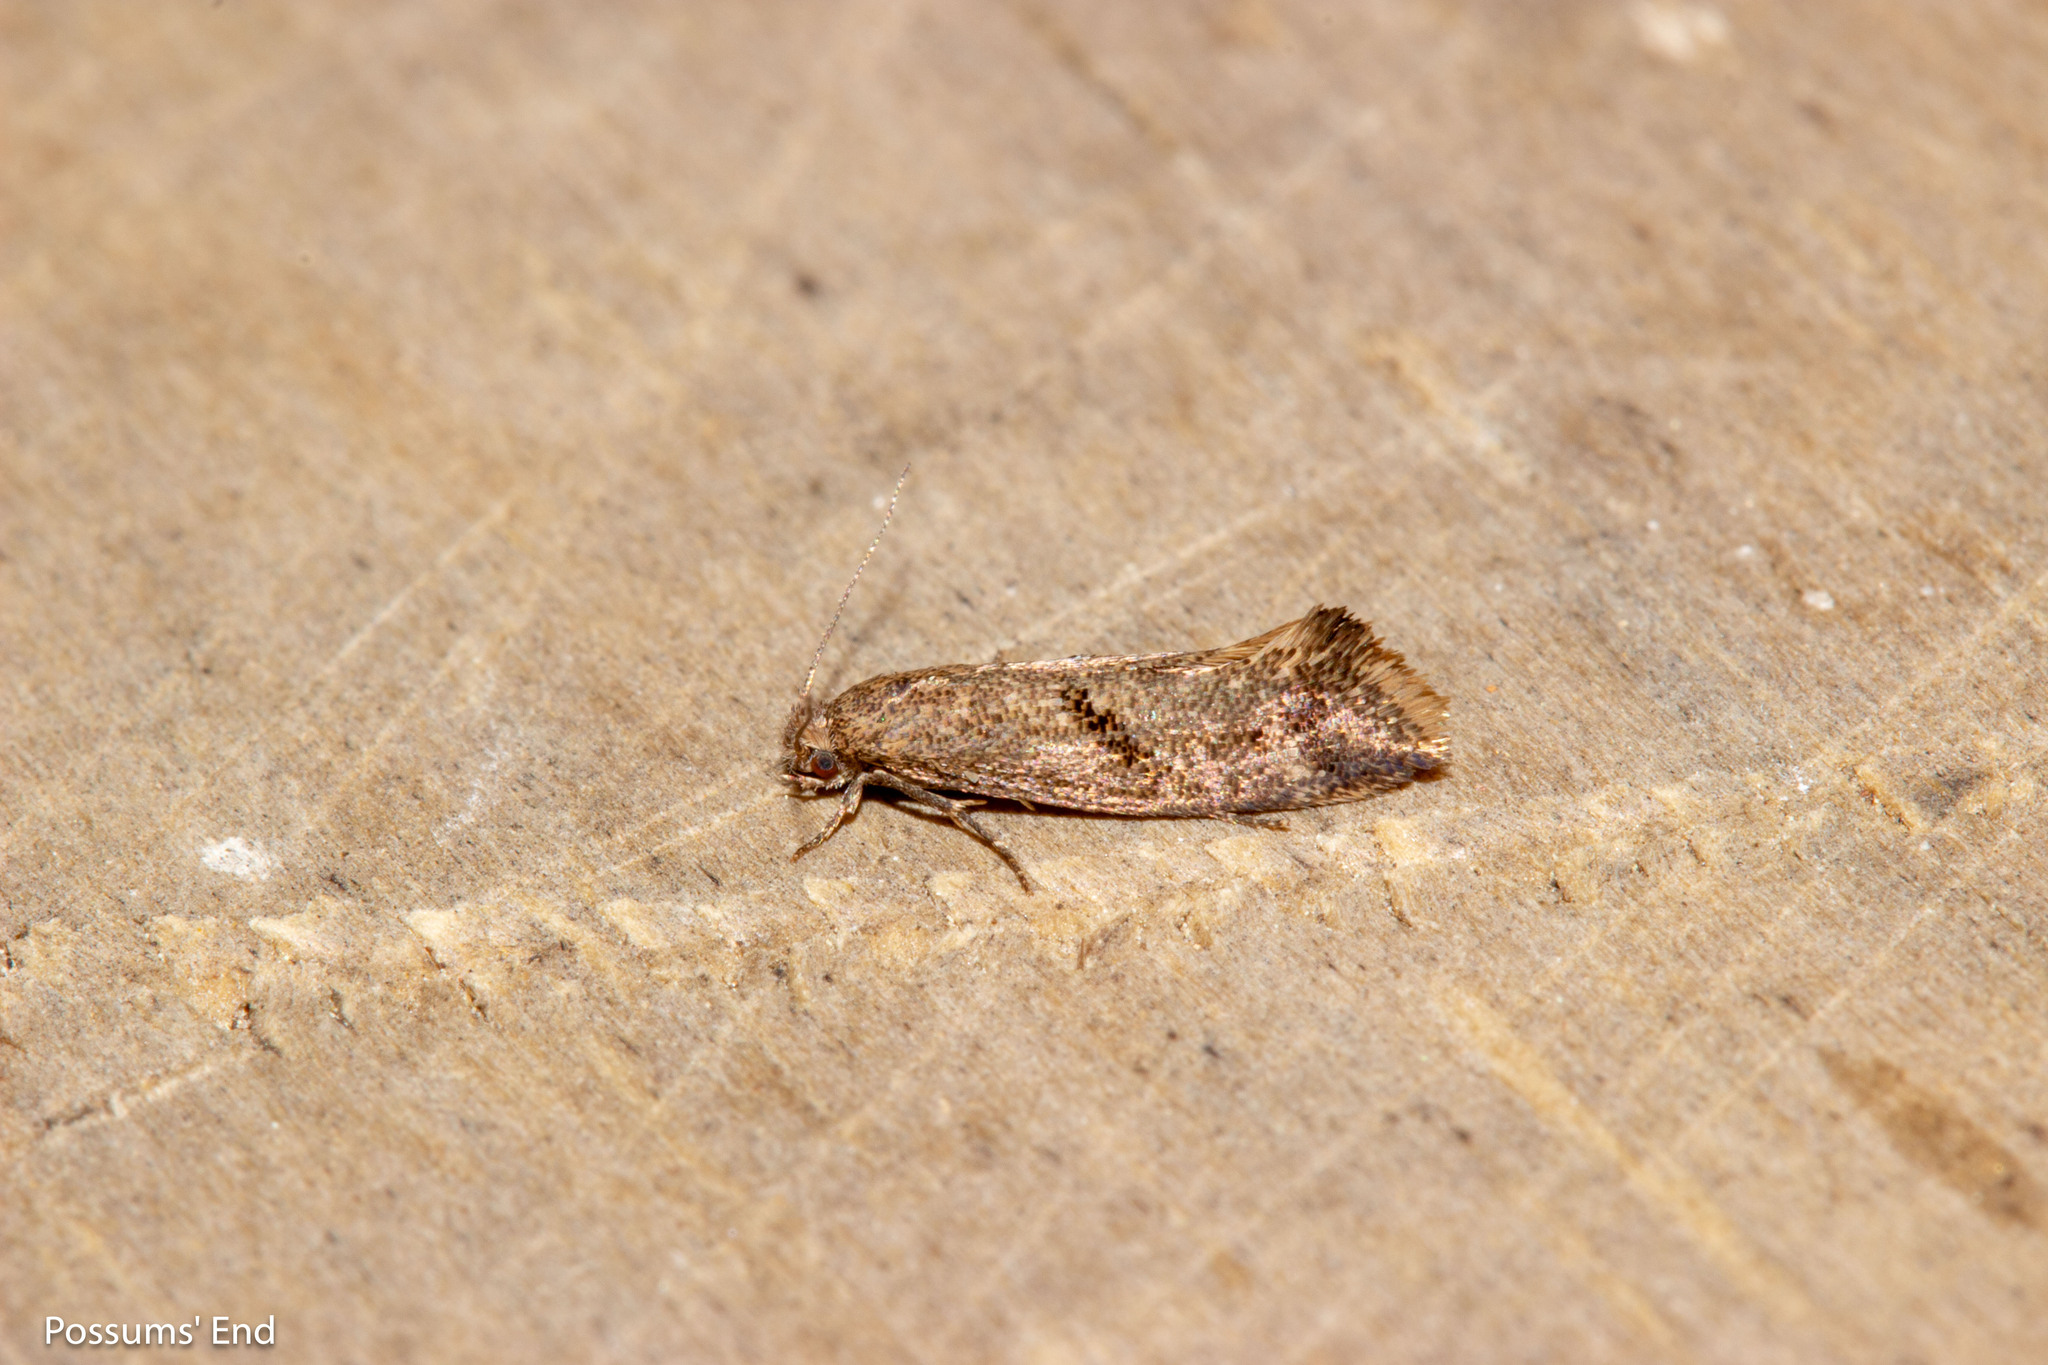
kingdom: Animalia
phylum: Arthropoda
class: Insecta
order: Lepidoptera
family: Tineidae
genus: Tinea
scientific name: Tinea mochlota
